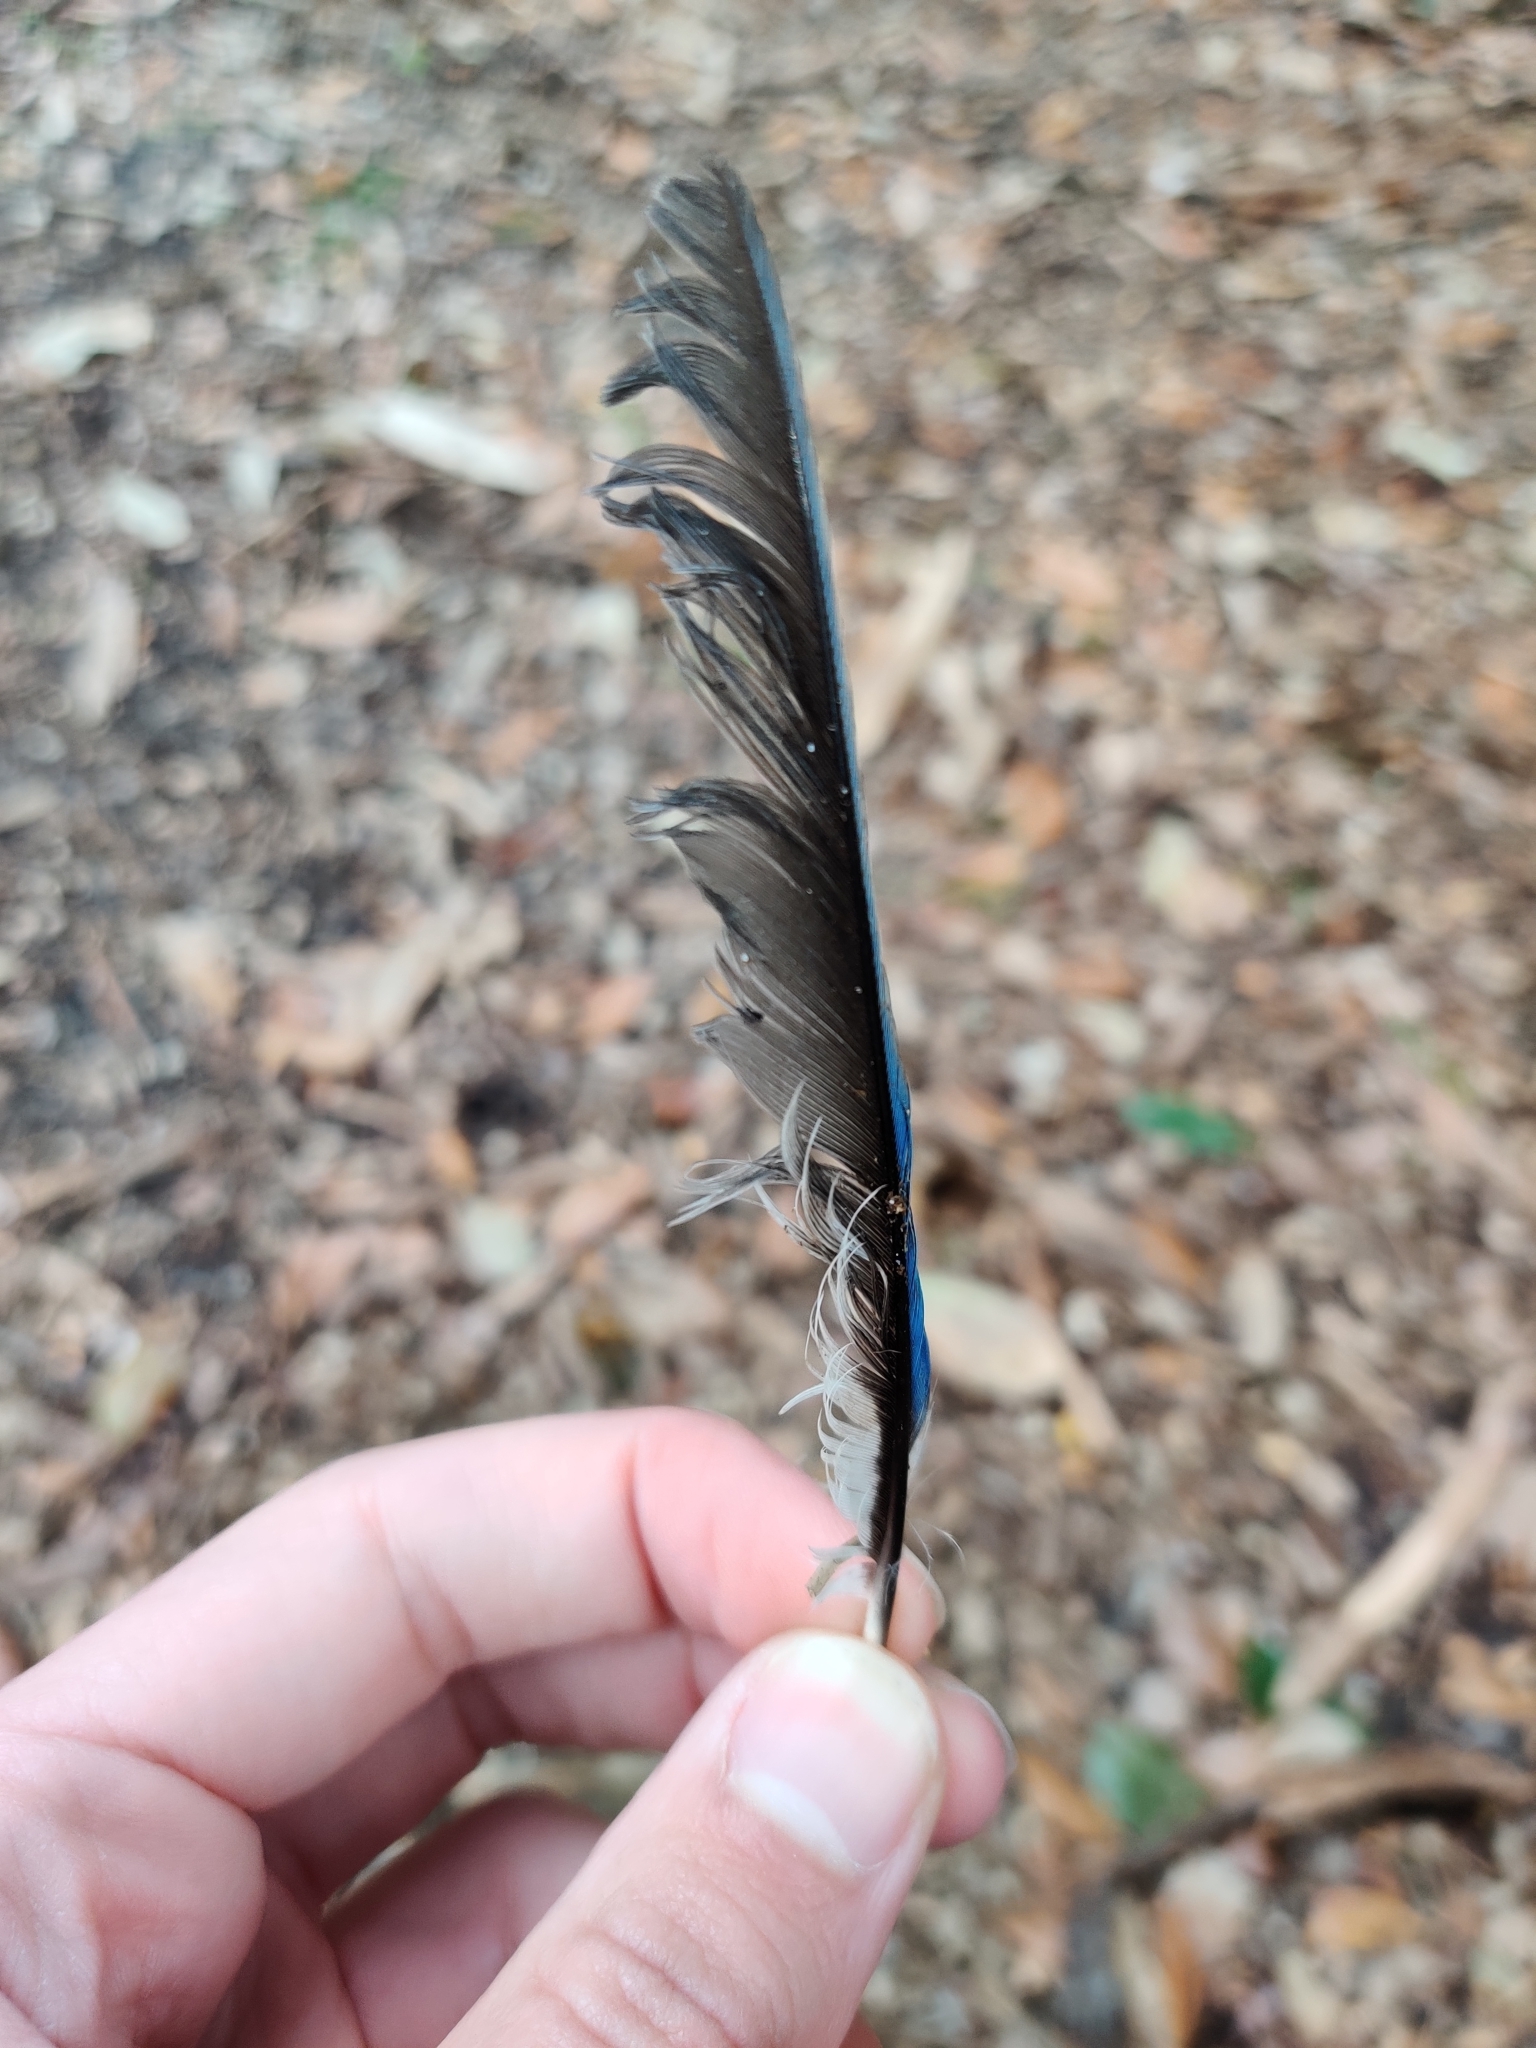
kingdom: Animalia
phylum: Chordata
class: Aves
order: Passeriformes
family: Corvidae
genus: Cyanocitta
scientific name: Cyanocitta cristata
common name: Blue jay
